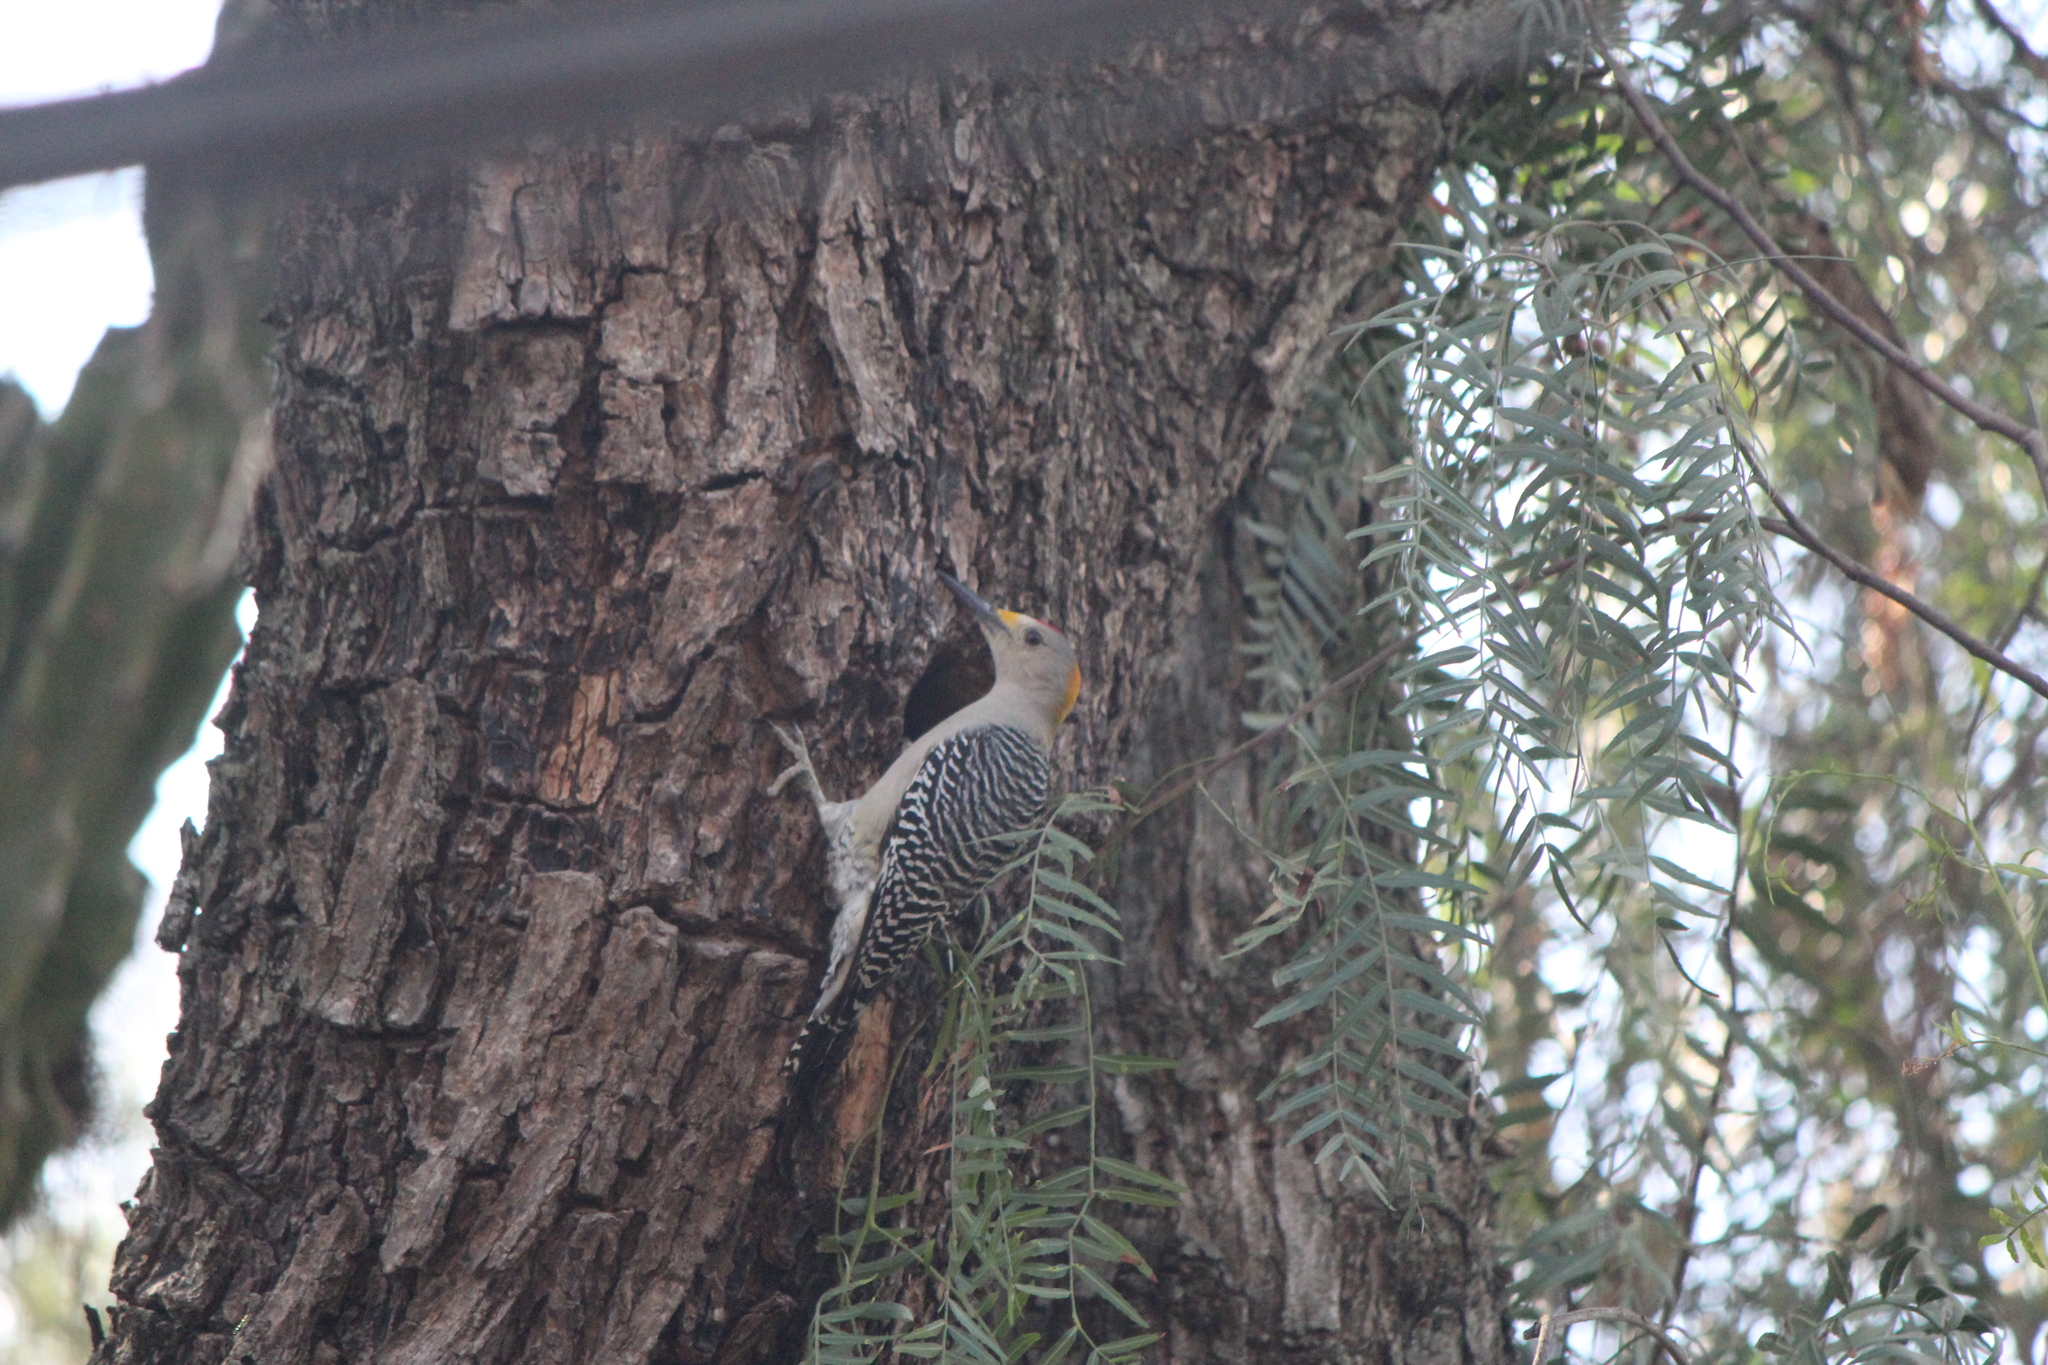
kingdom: Animalia
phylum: Chordata
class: Aves
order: Piciformes
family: Picidae
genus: Melanerpes
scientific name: Melanerpes aurifrons
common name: Golden-fronted woodpecker
